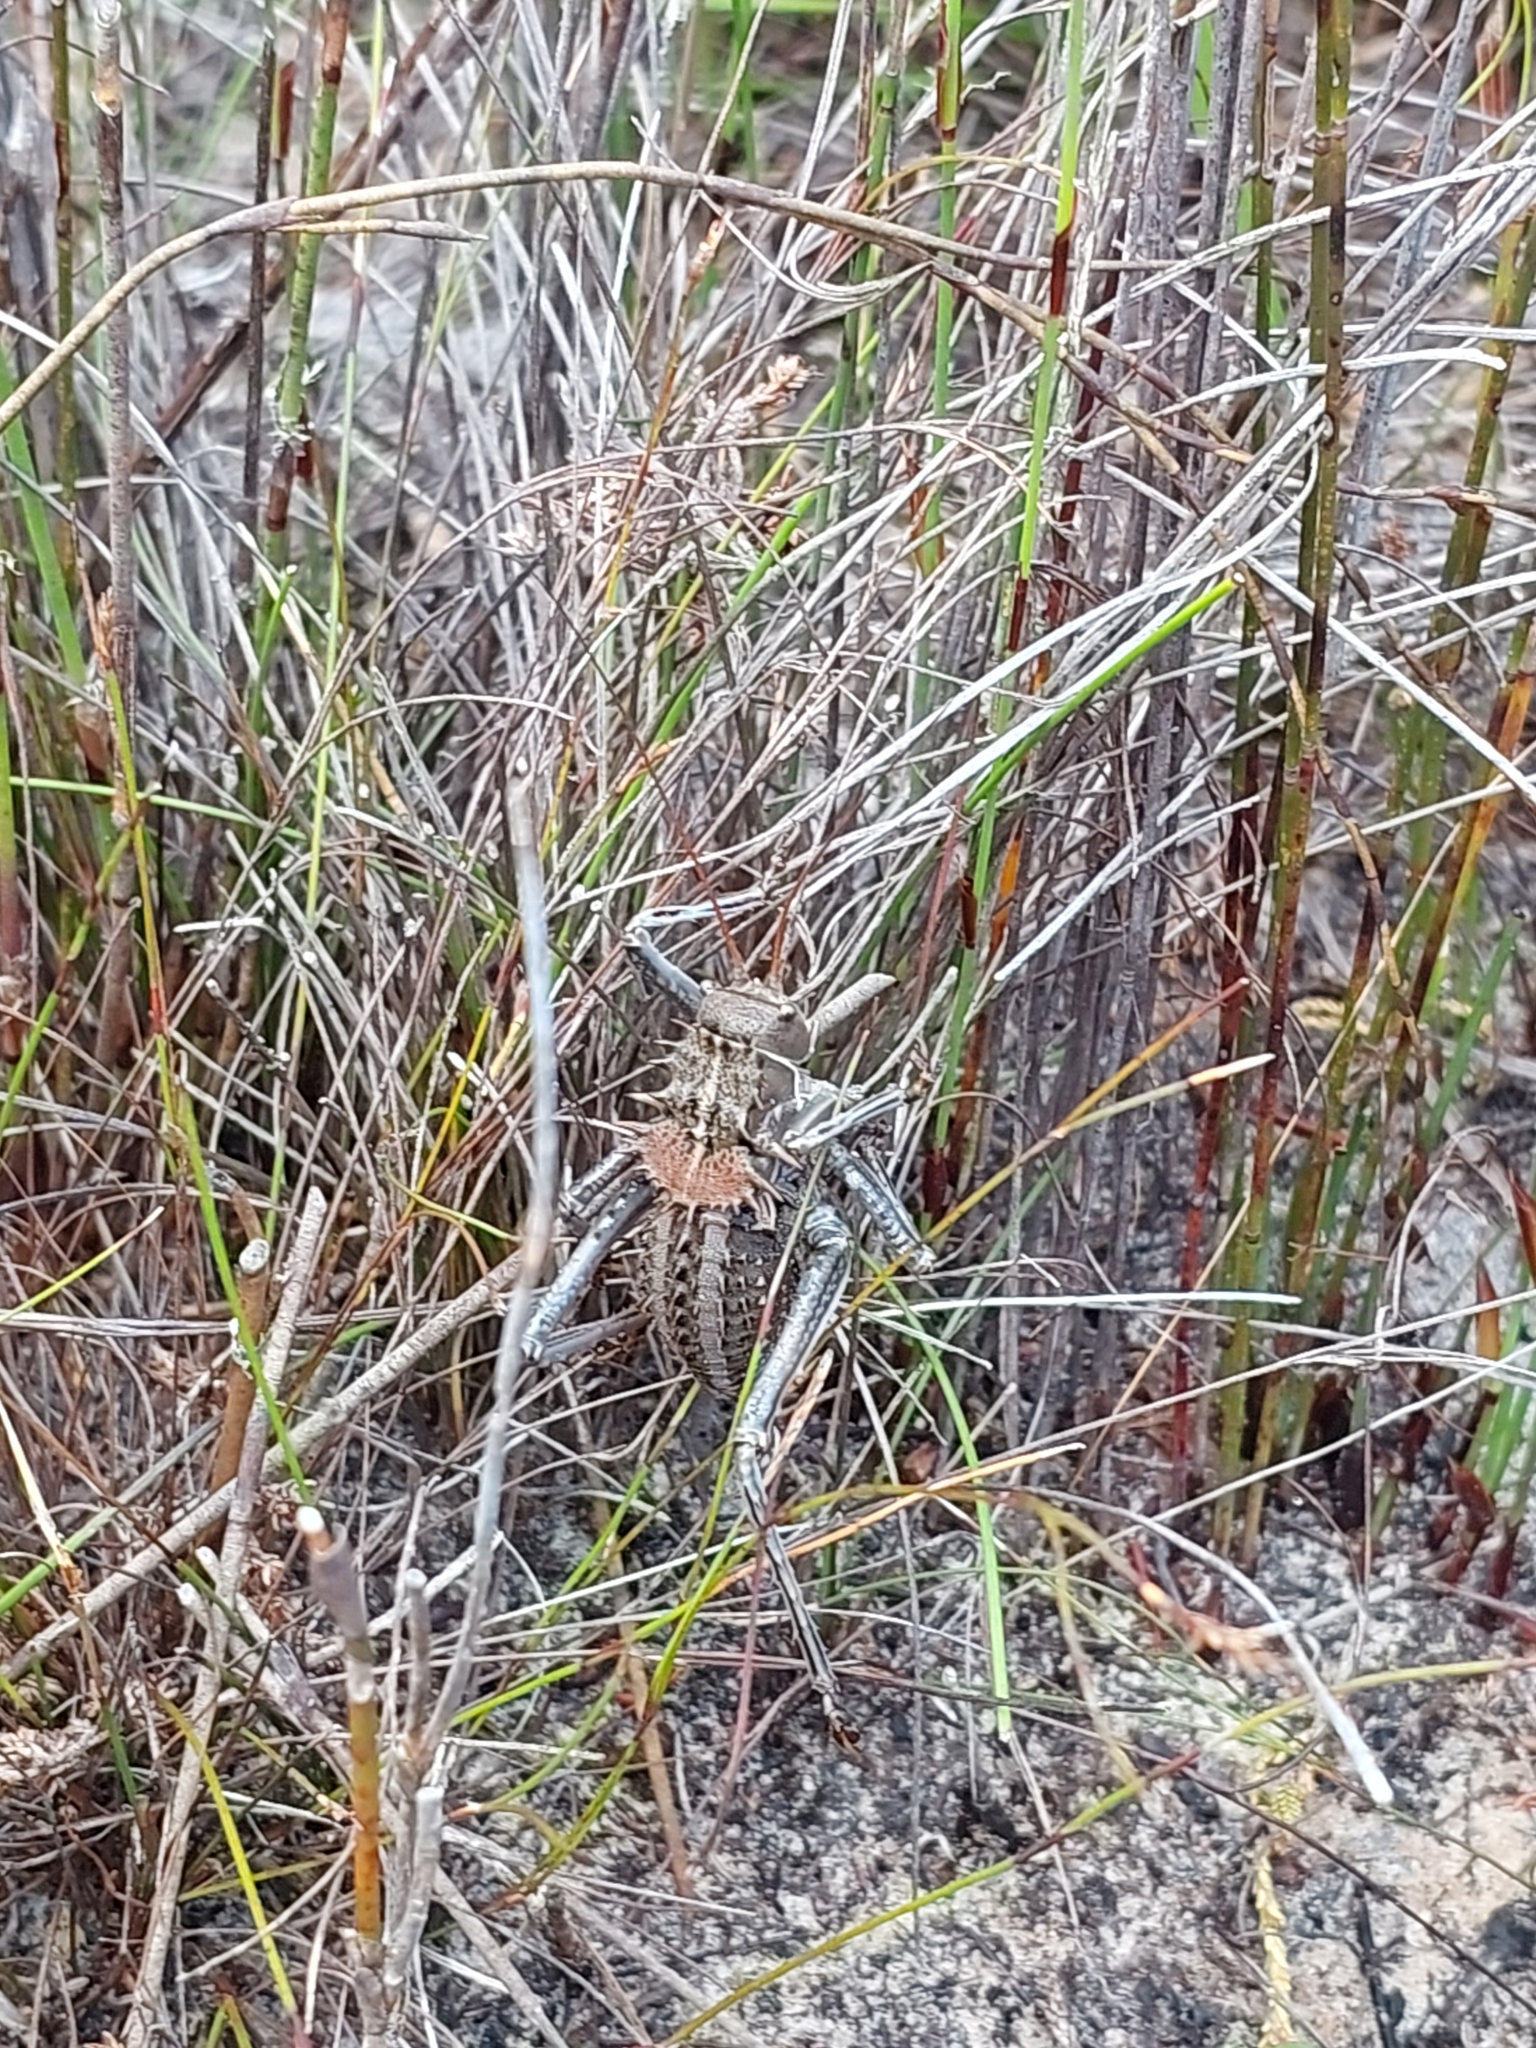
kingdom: Animalia
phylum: Arthropoda
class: Insecta
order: Orthoptera
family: Tettigoniidae
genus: Hetrodes
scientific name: Hetrodes pupus
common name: Koringkriek
